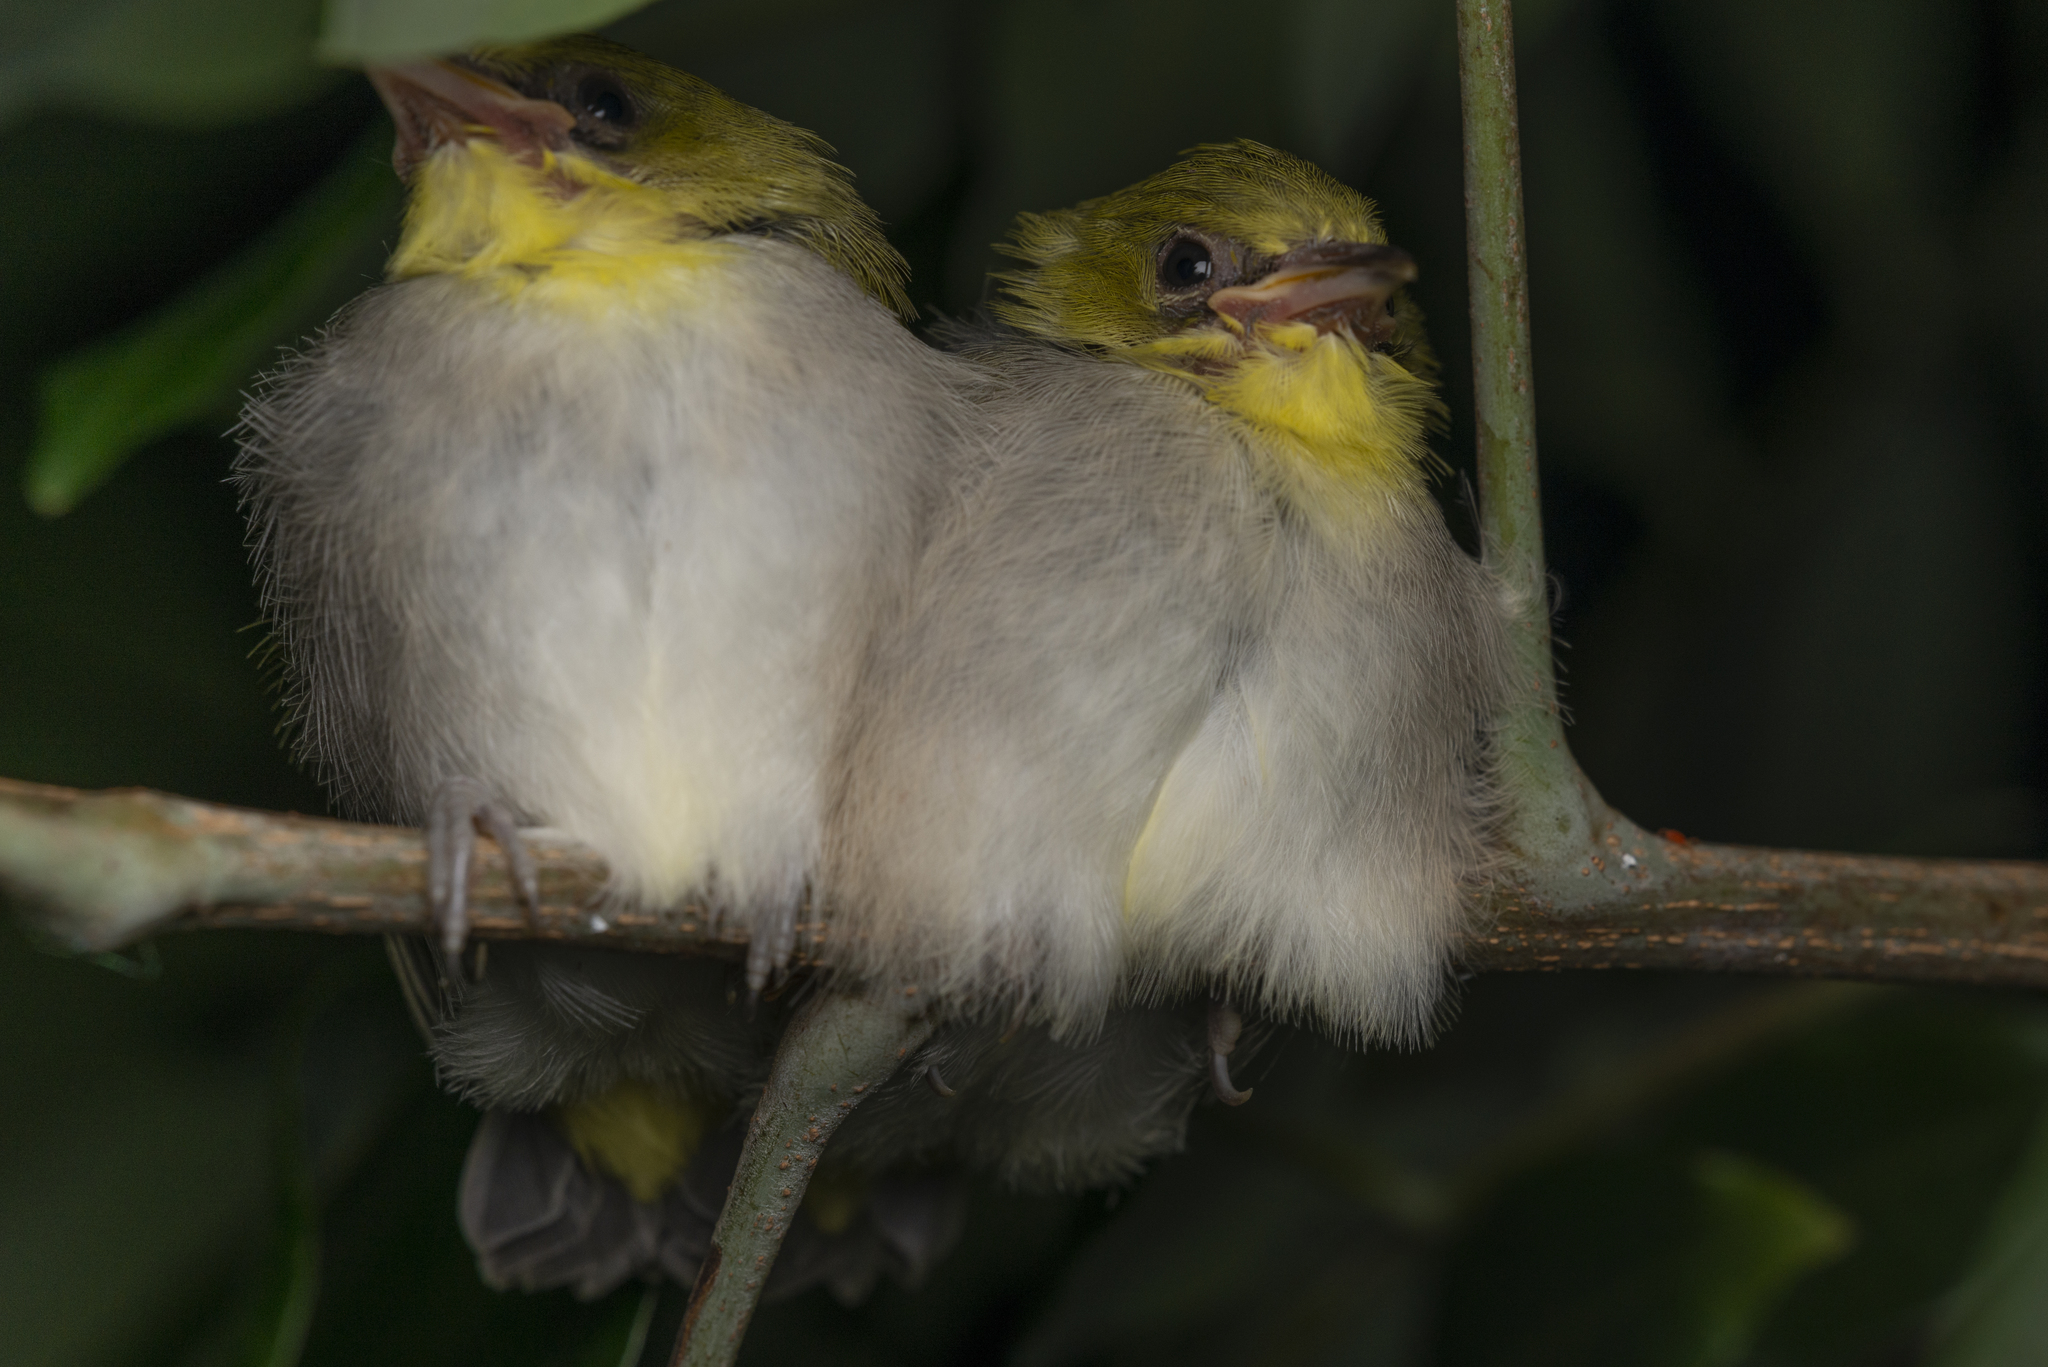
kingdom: Animalia
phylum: Chordata
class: Aves
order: Passeriformes
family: Zosteropidae
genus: Zosterops
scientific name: Zosterops simplex
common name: Swinhoe's white-eye
